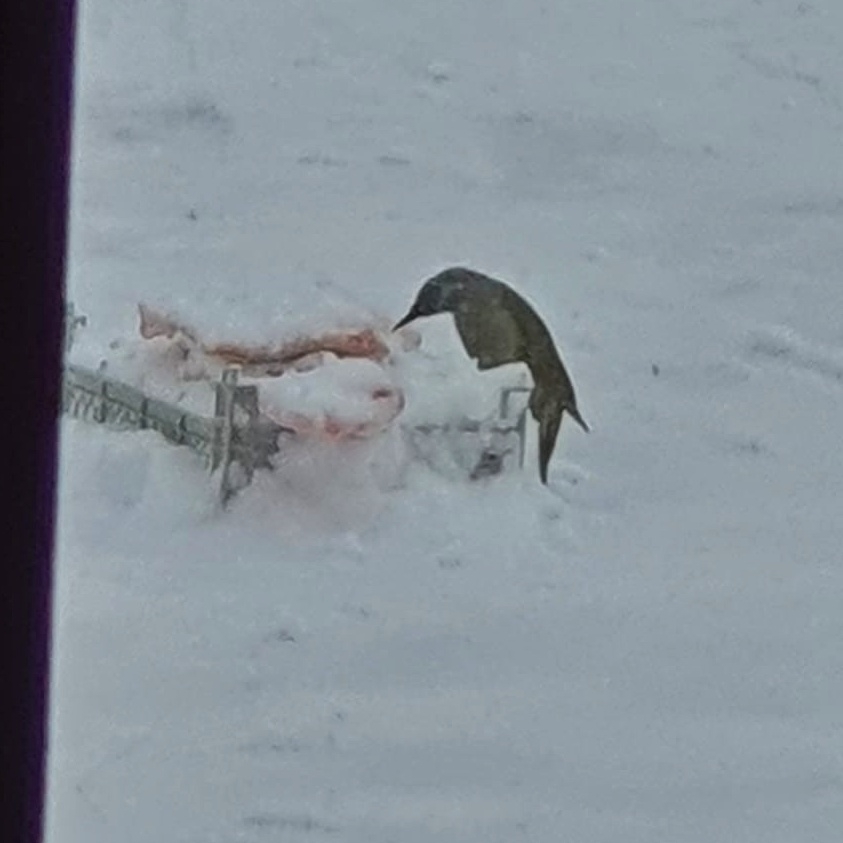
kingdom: Animalia
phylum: Chordata
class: Aves
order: Piciformes
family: Picidae
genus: Picus
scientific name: Picus canus
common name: Grey-headed woodpecker
